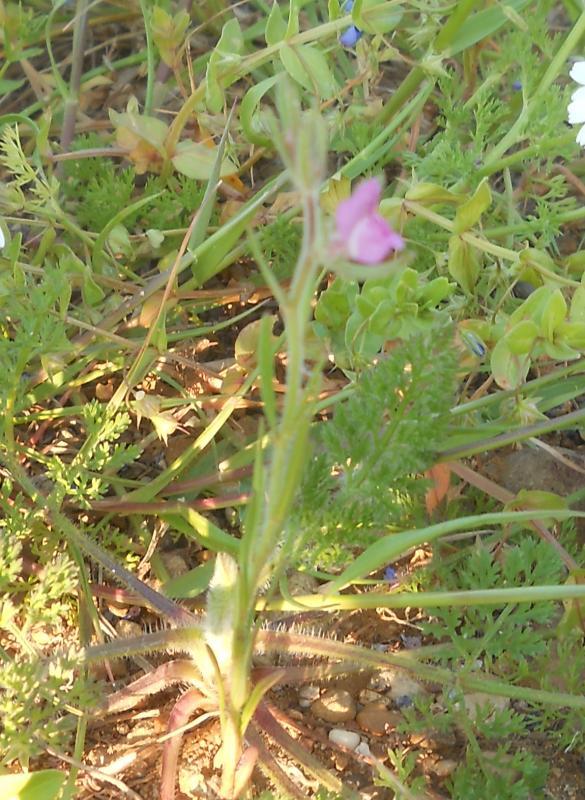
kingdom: Plantae
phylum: Tracheophyta
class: Magnoliopsida
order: Lamiales
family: Plantaginaceae
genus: Misopates
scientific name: Misopates orontium
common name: Weasel's-snout
